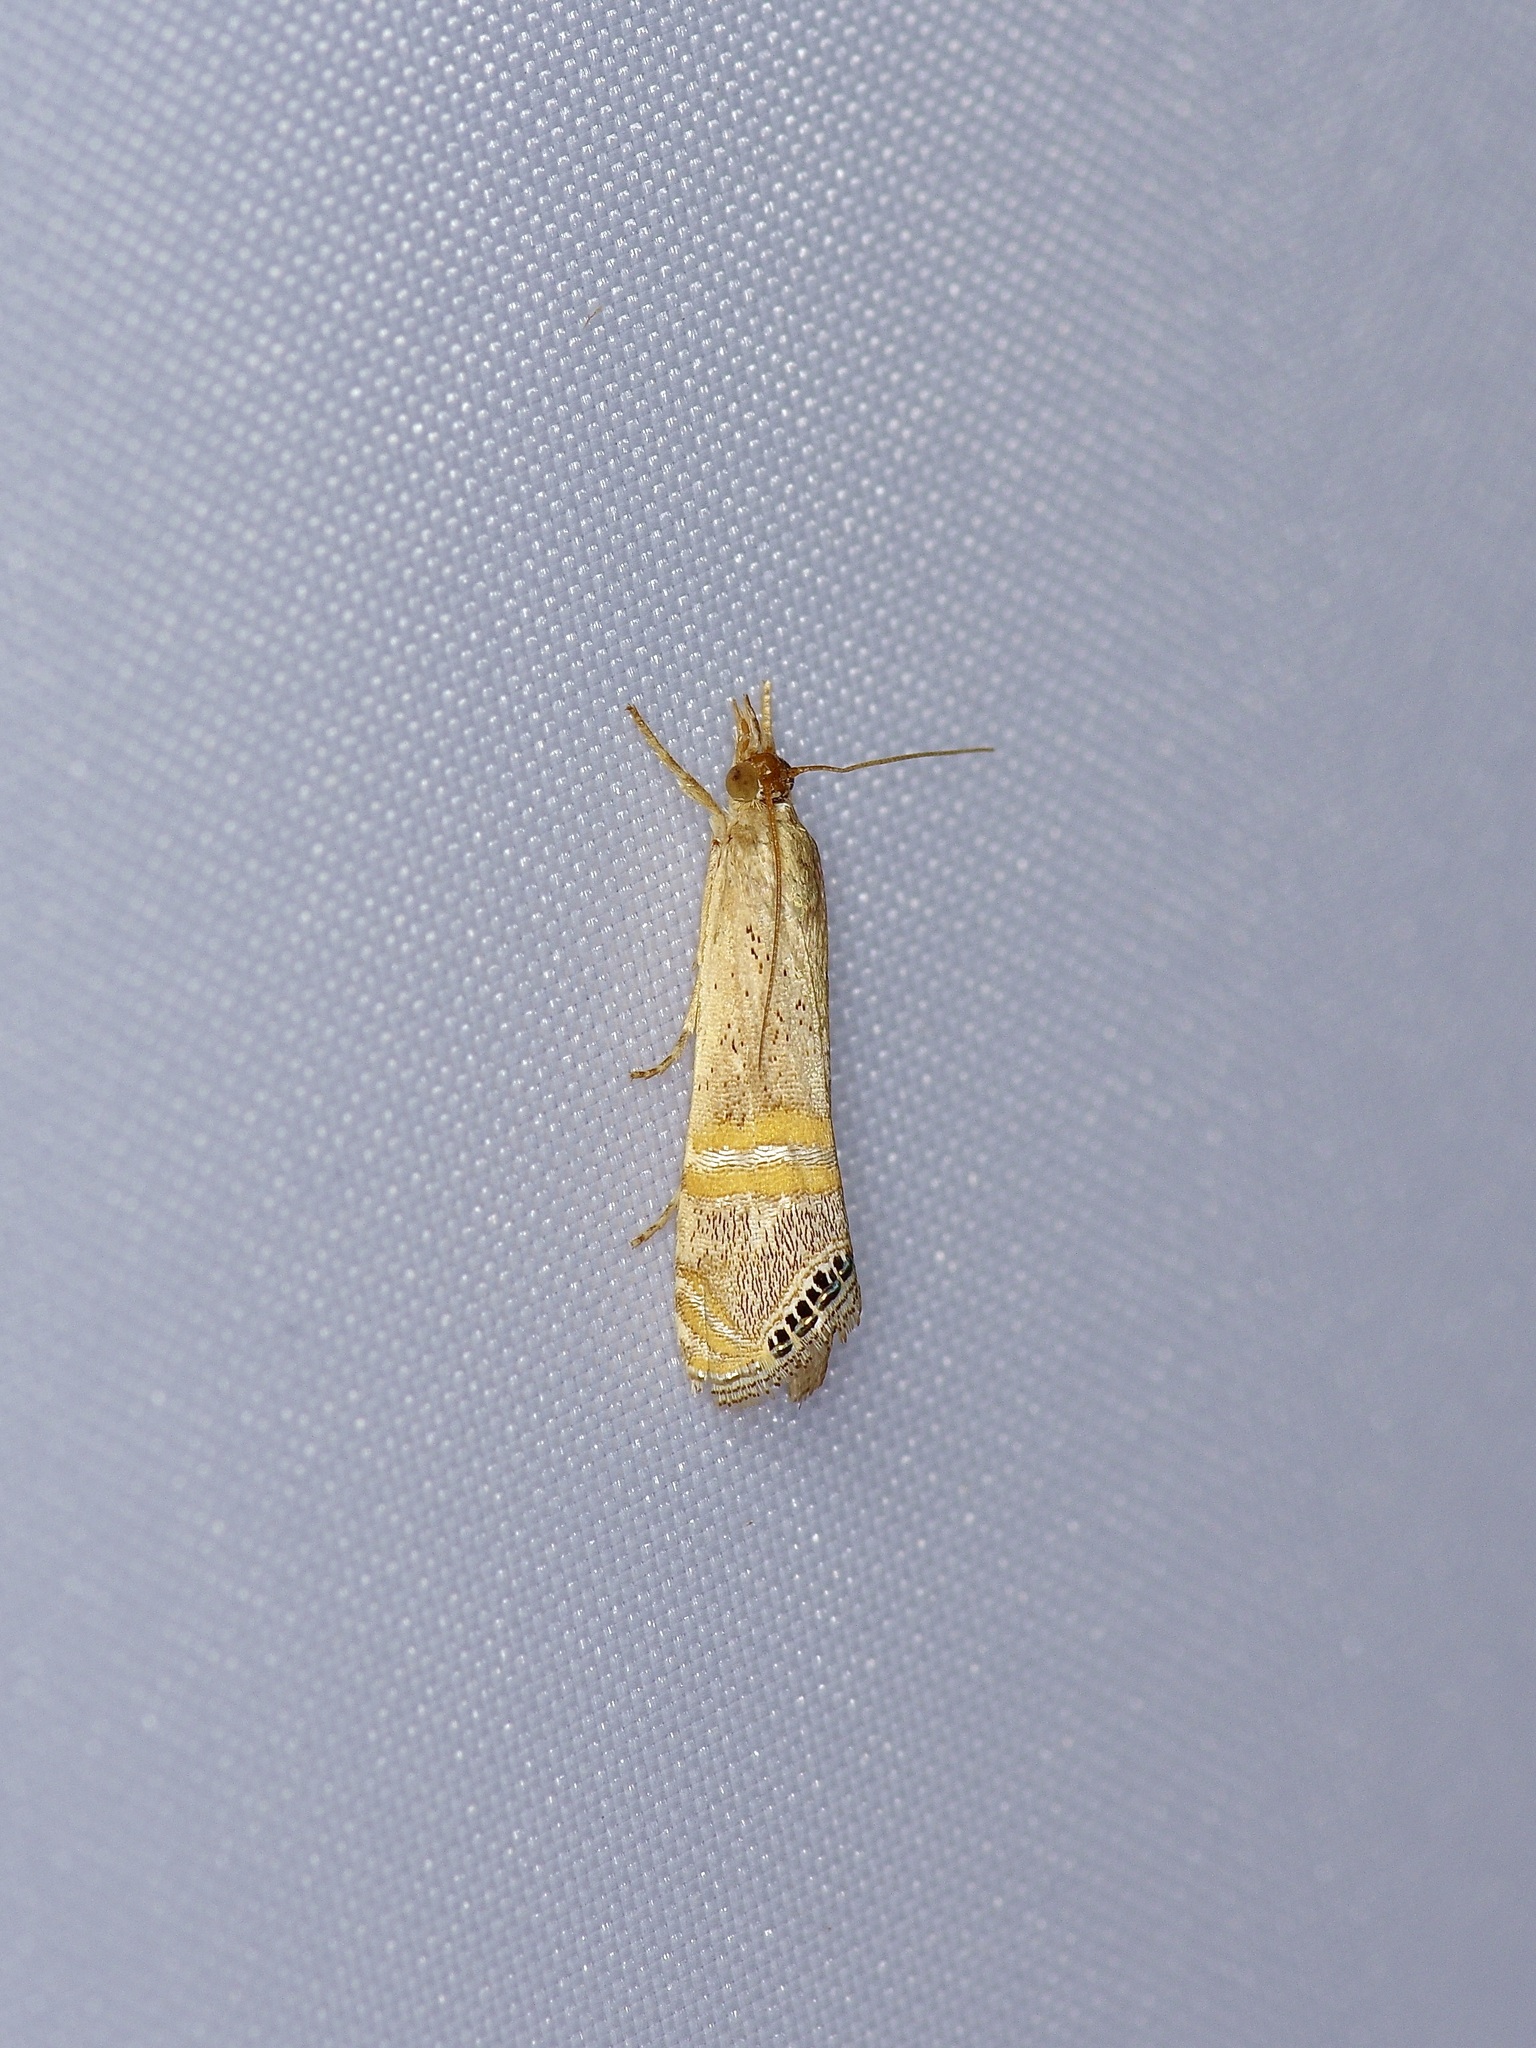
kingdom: Animalia
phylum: Arthropoda
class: Insecta
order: Lepidoptera
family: Crambidae
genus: Euchromius
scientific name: Euchromius ocellea
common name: Necklace veneer moth
